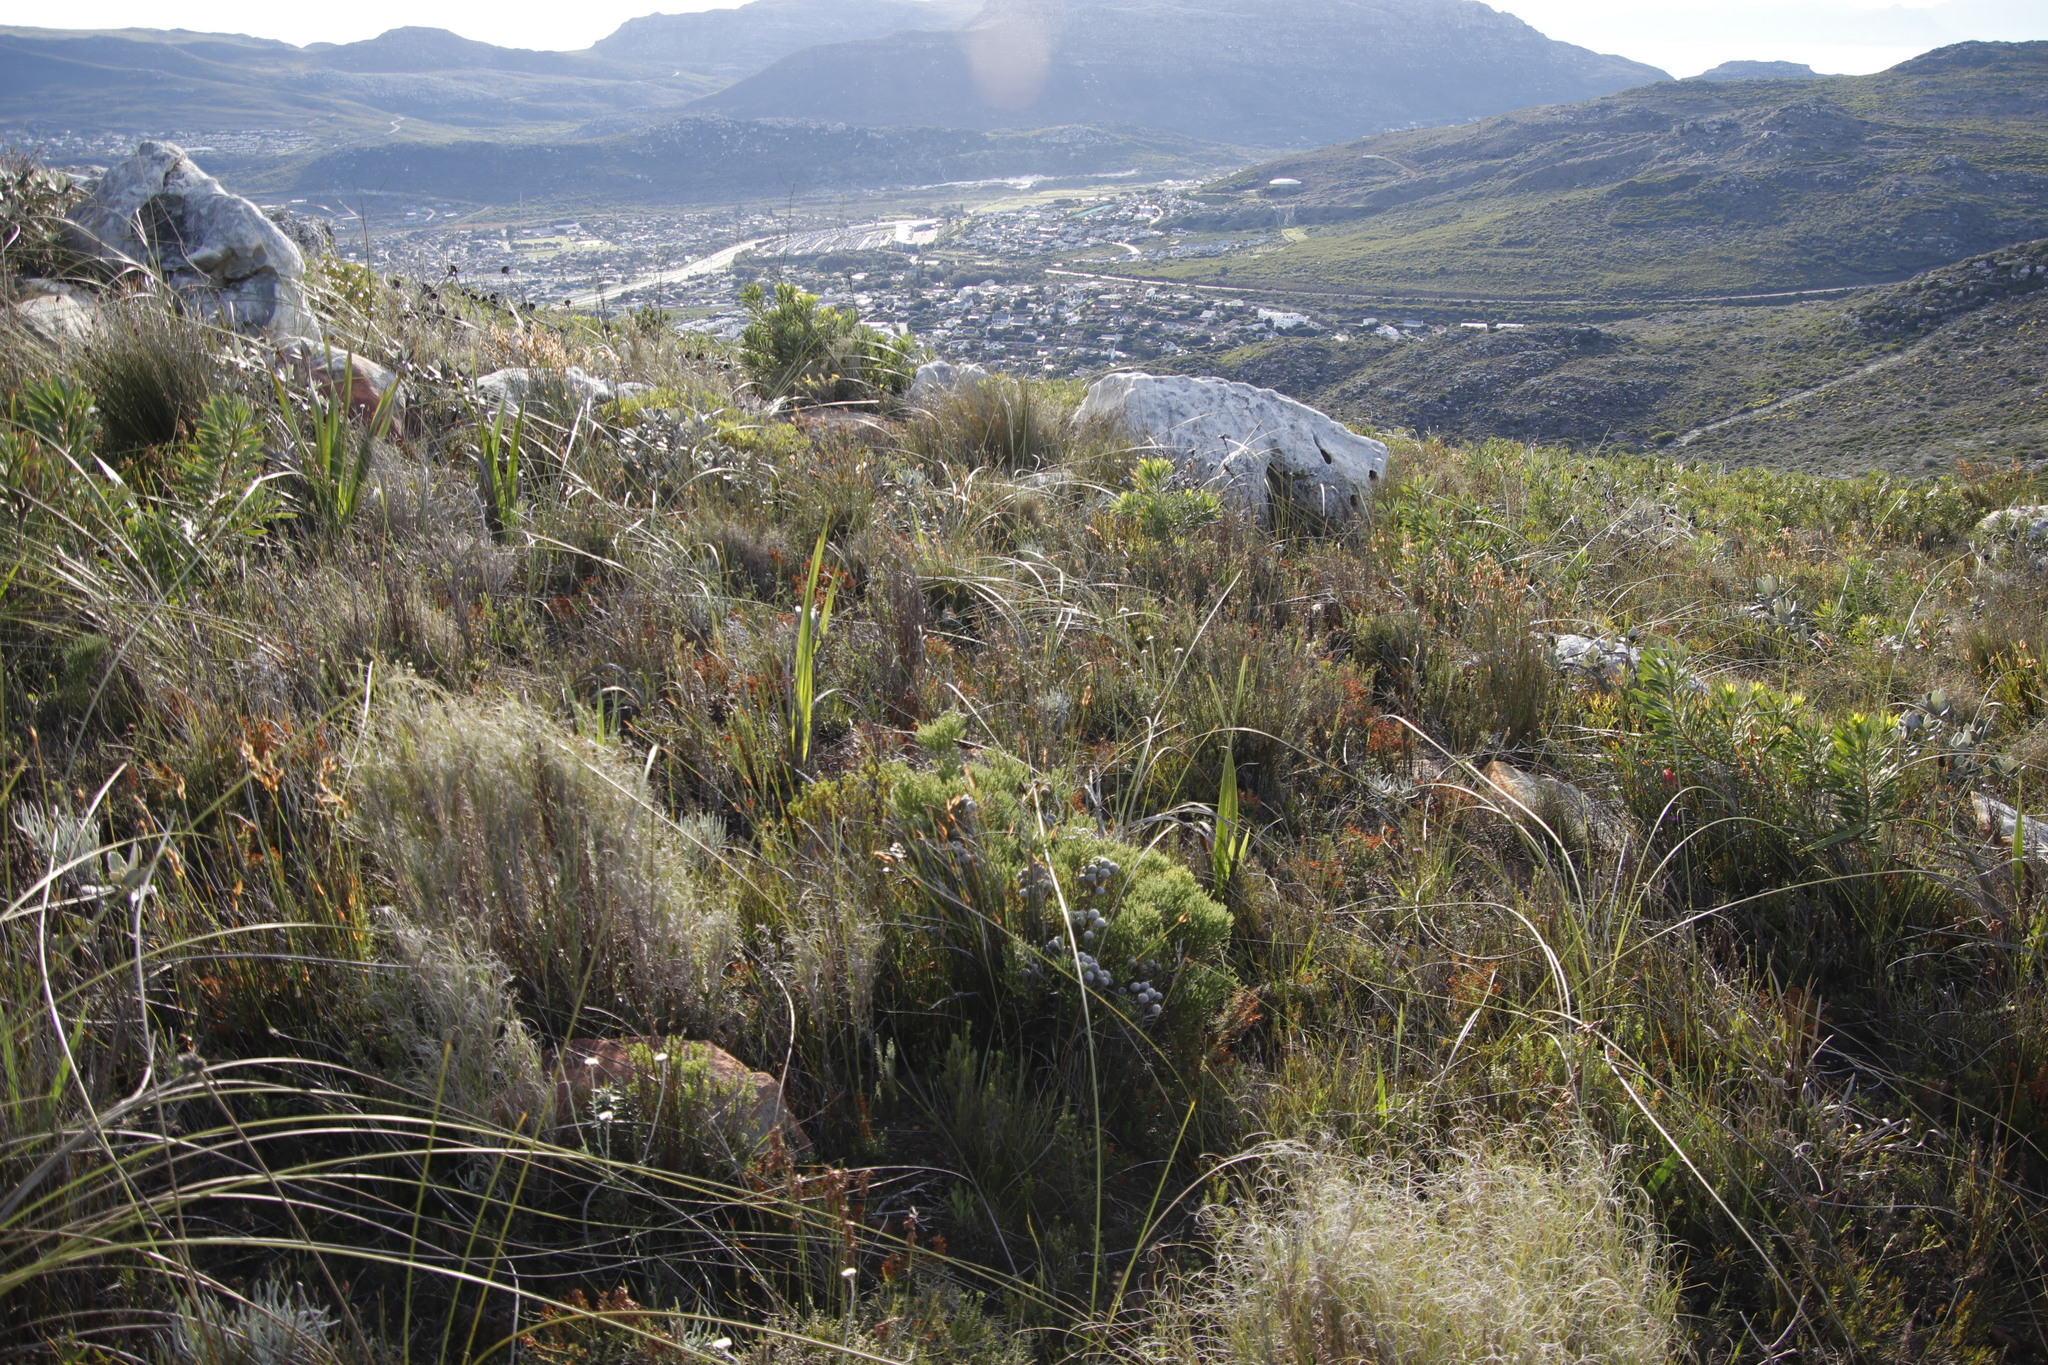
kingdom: Plantae
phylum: Tracheophyta
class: Magnoliopsida
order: Bruniales
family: Bruniaceae
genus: Brunia
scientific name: Brunia noduliflora
